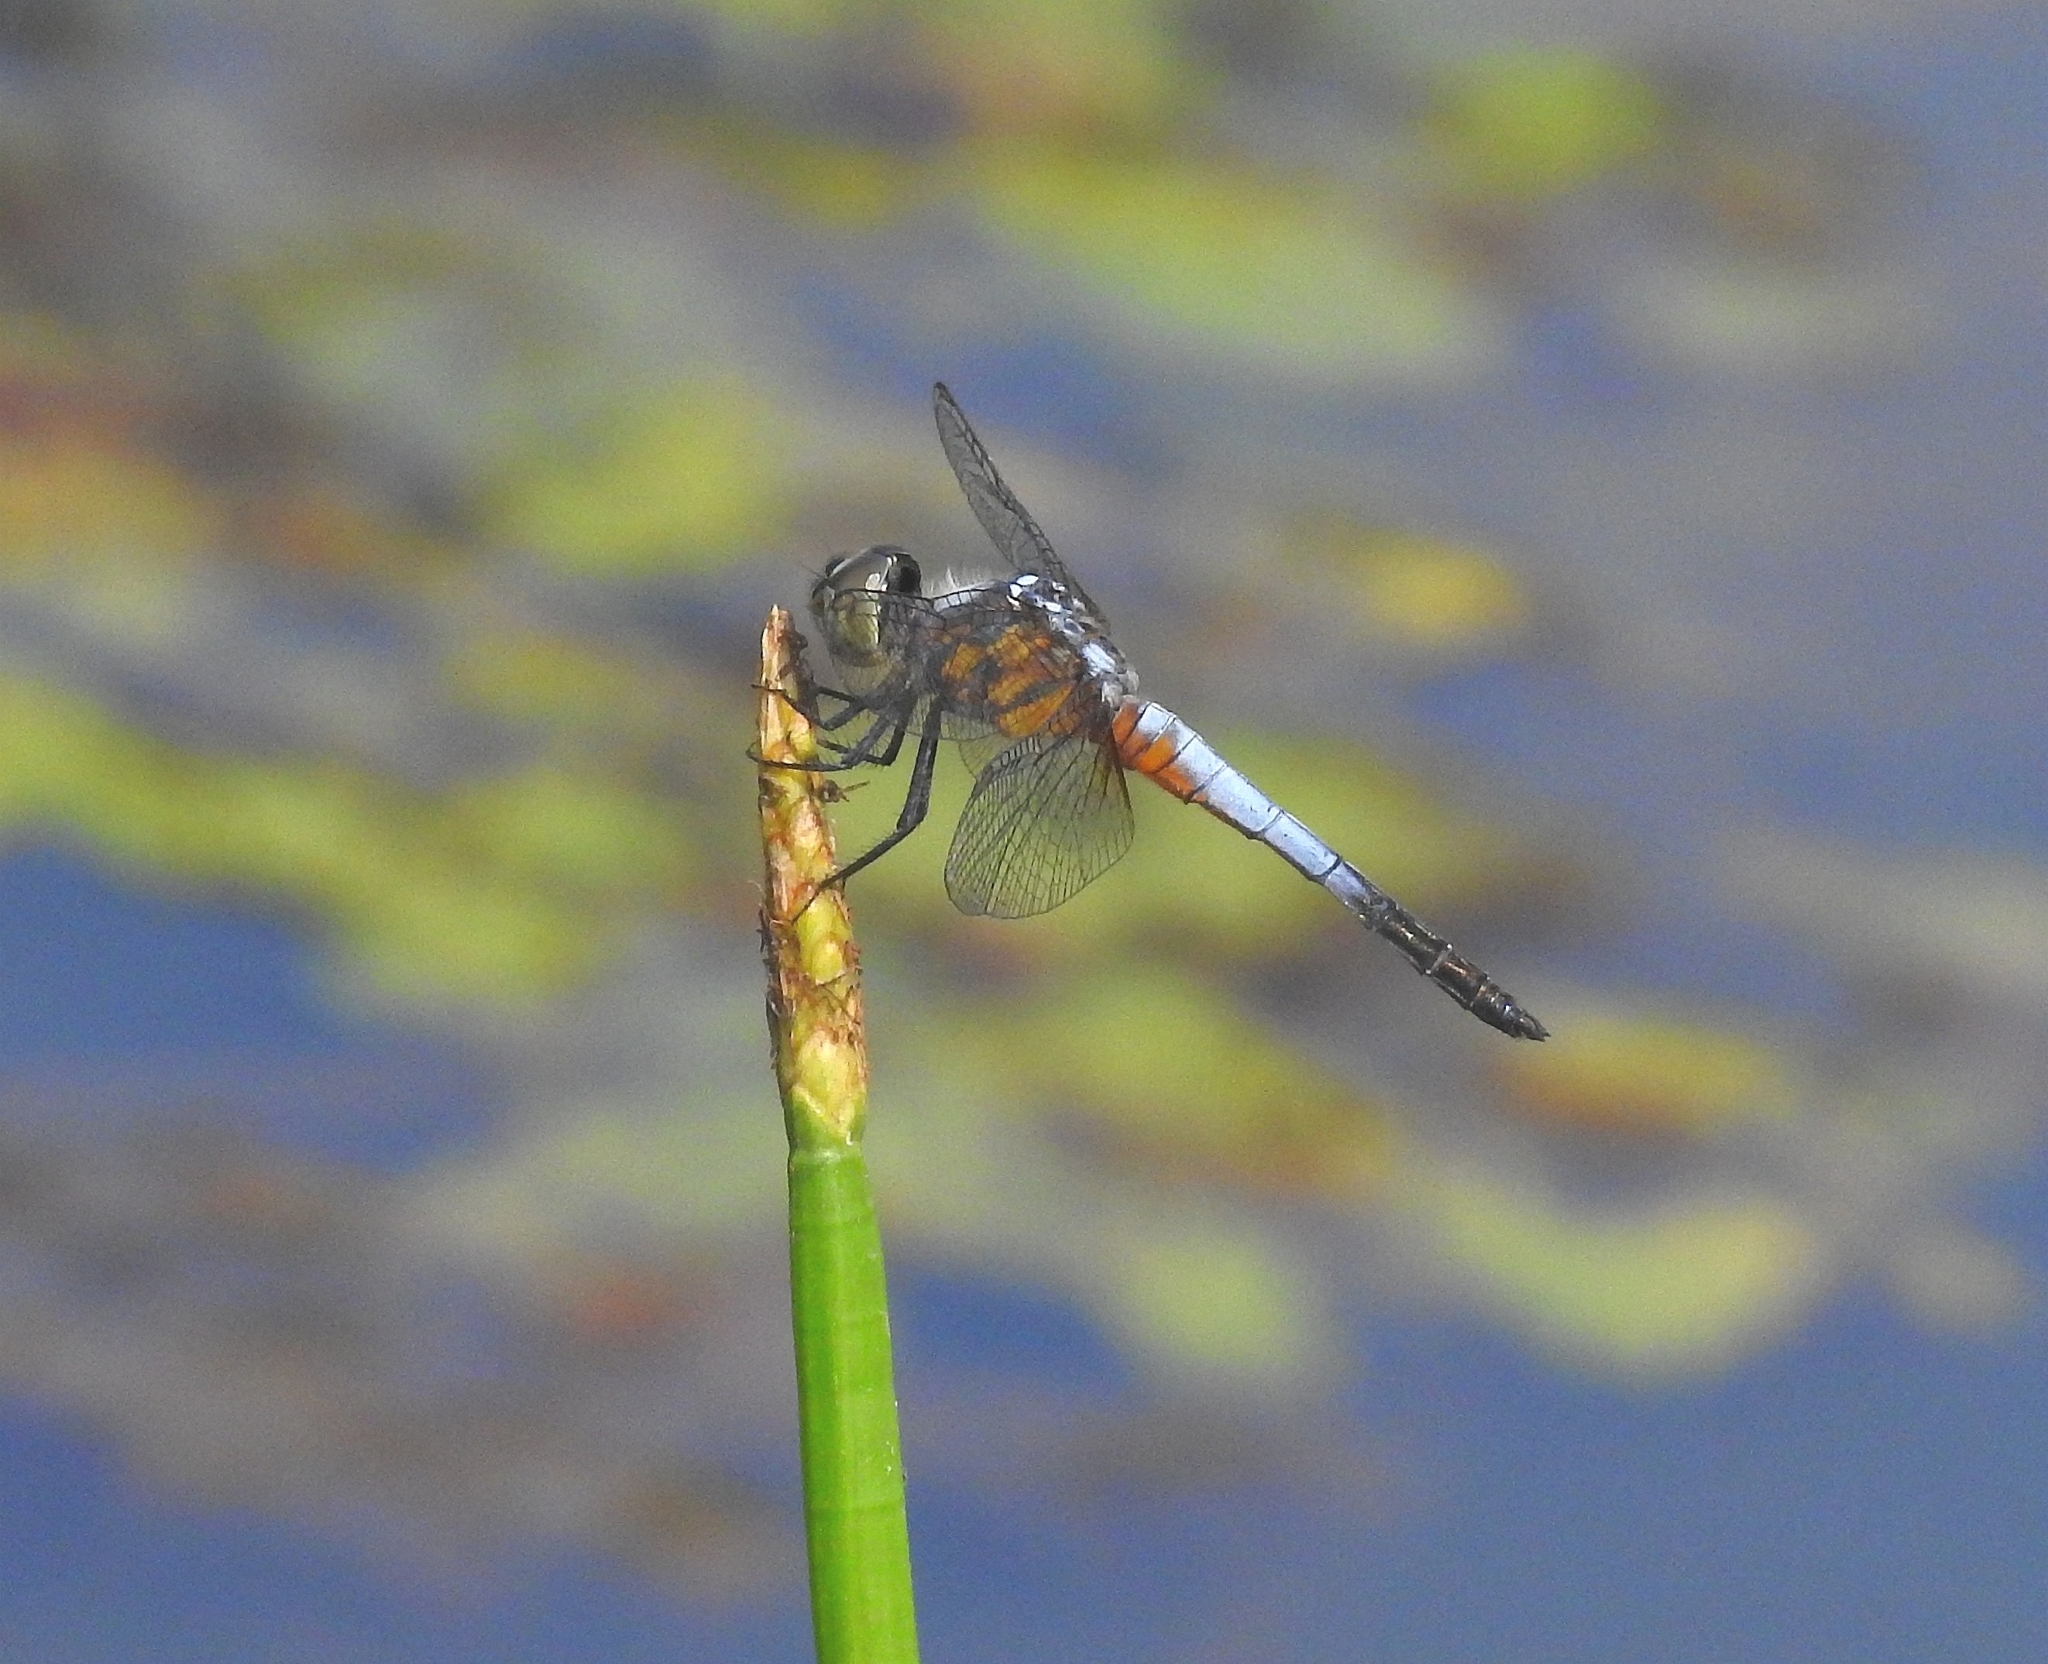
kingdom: Animalia
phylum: Arthropoda
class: Insecta
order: Odonata
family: Libellulidae
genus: Brachydiplax
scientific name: Brachydiplax chalybea
